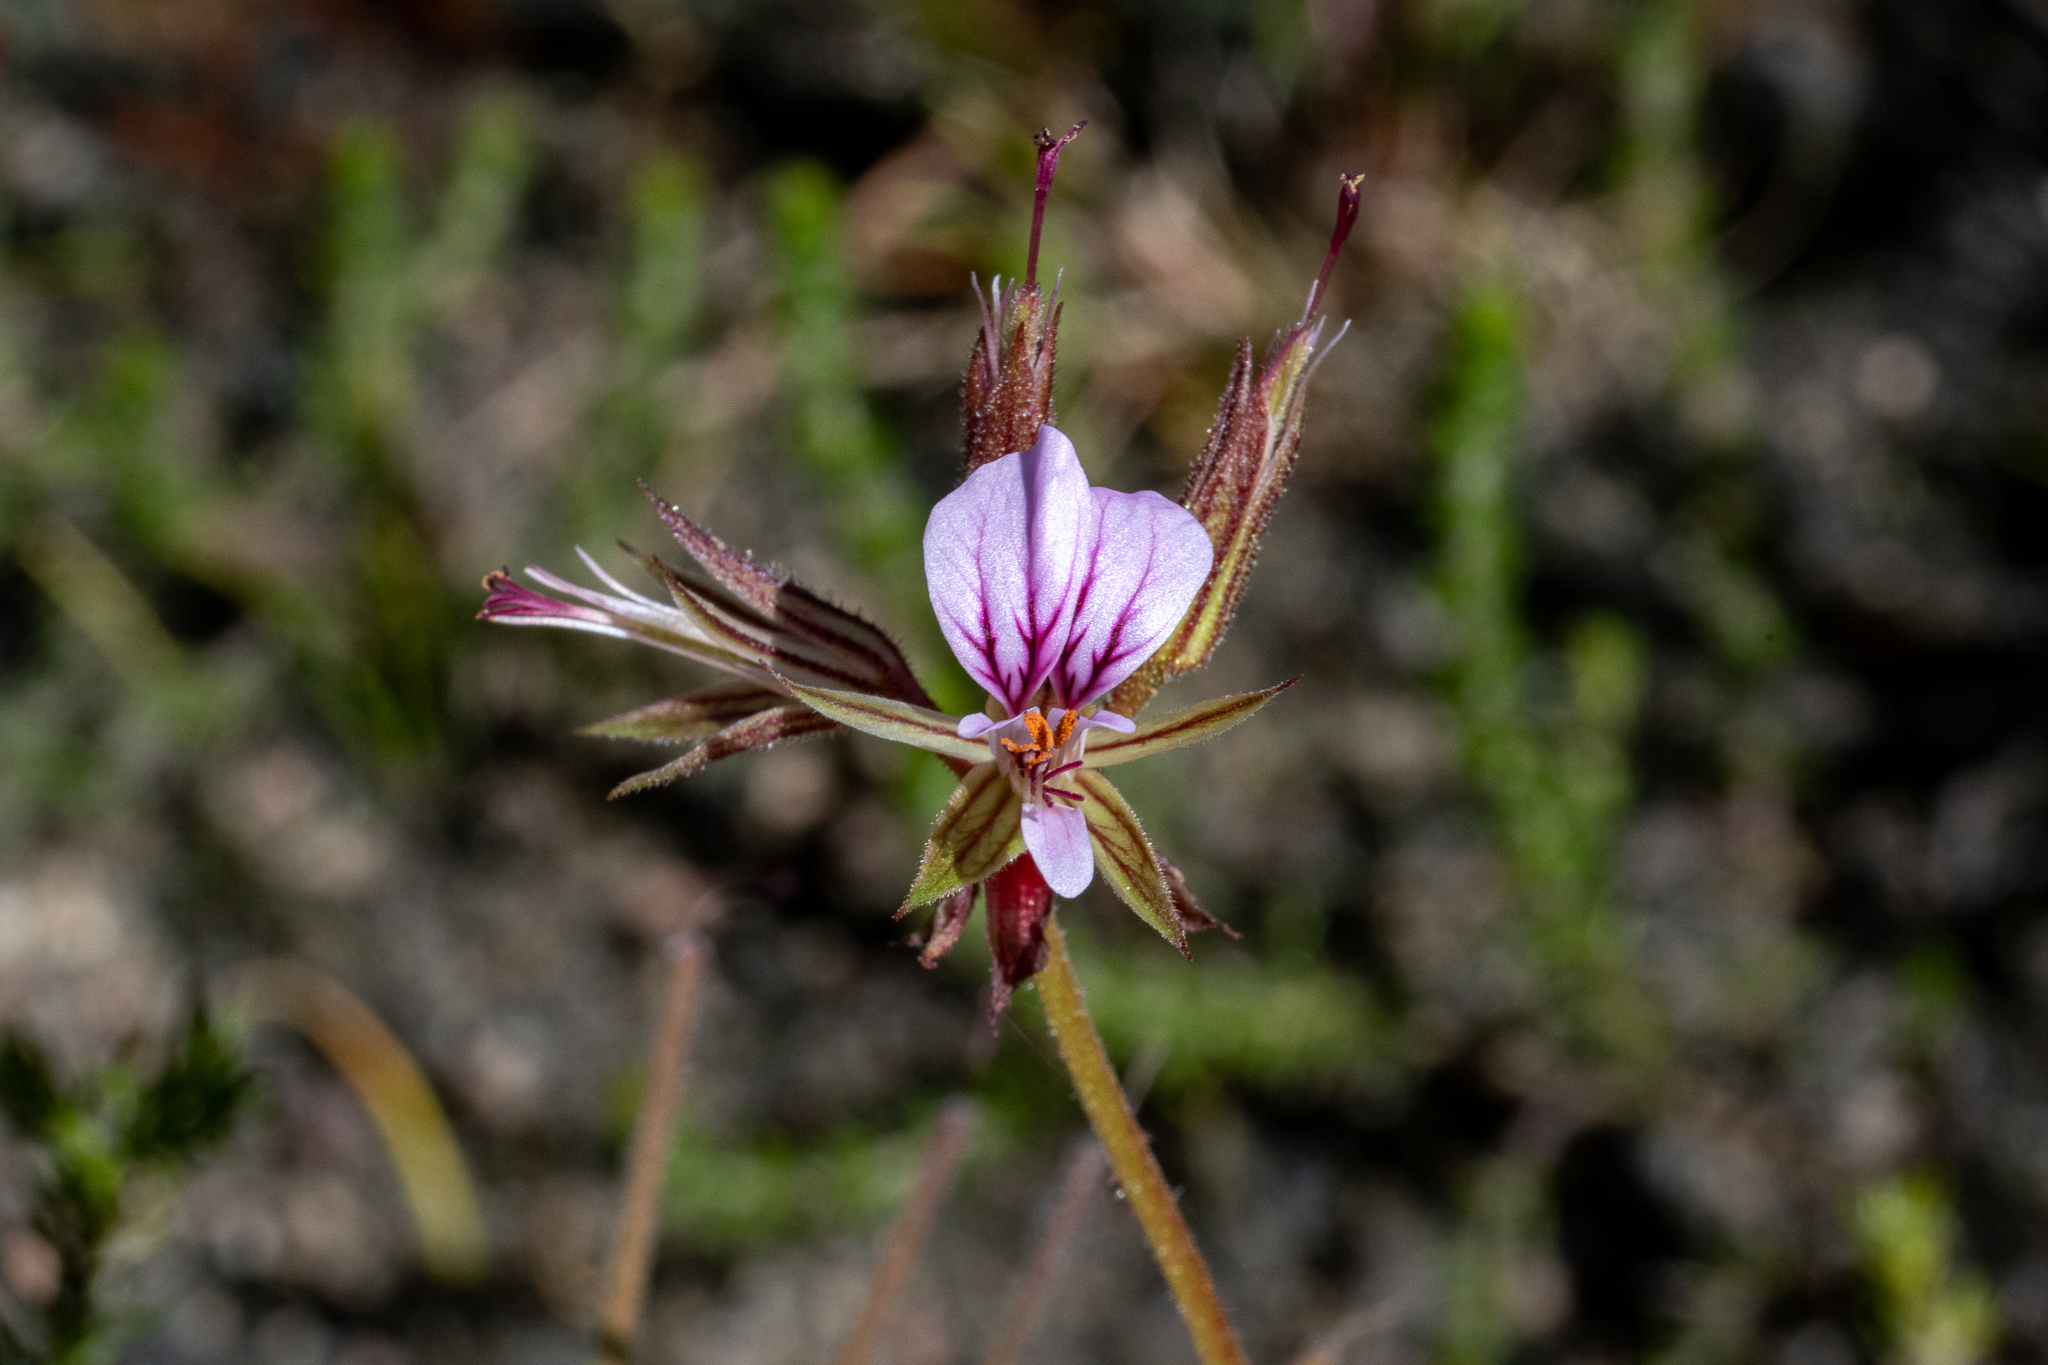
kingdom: Plantae
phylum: Tracheophyta
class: Magnoliopsida
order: Geraniales
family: Geraniaceae
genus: Pelargonium
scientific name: Pelargonium myrrhifolium
